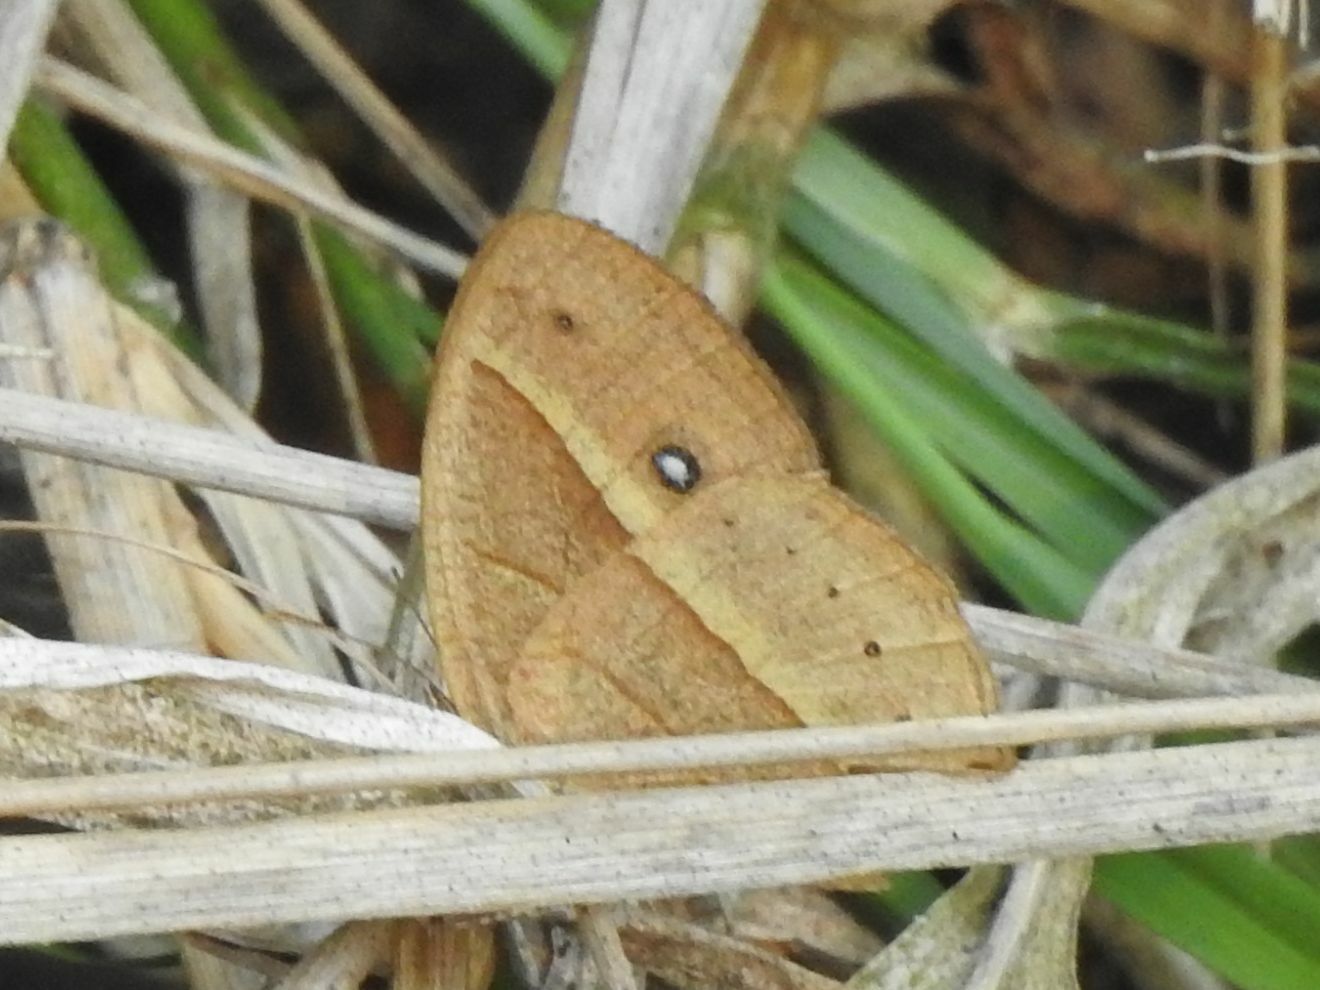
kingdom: Animalia
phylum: Arthropoda
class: Insecta
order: Lepidoptera
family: Nymphalidae
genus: Heteropsis
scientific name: Heteropsis perspicua
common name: Eyed bush brown
